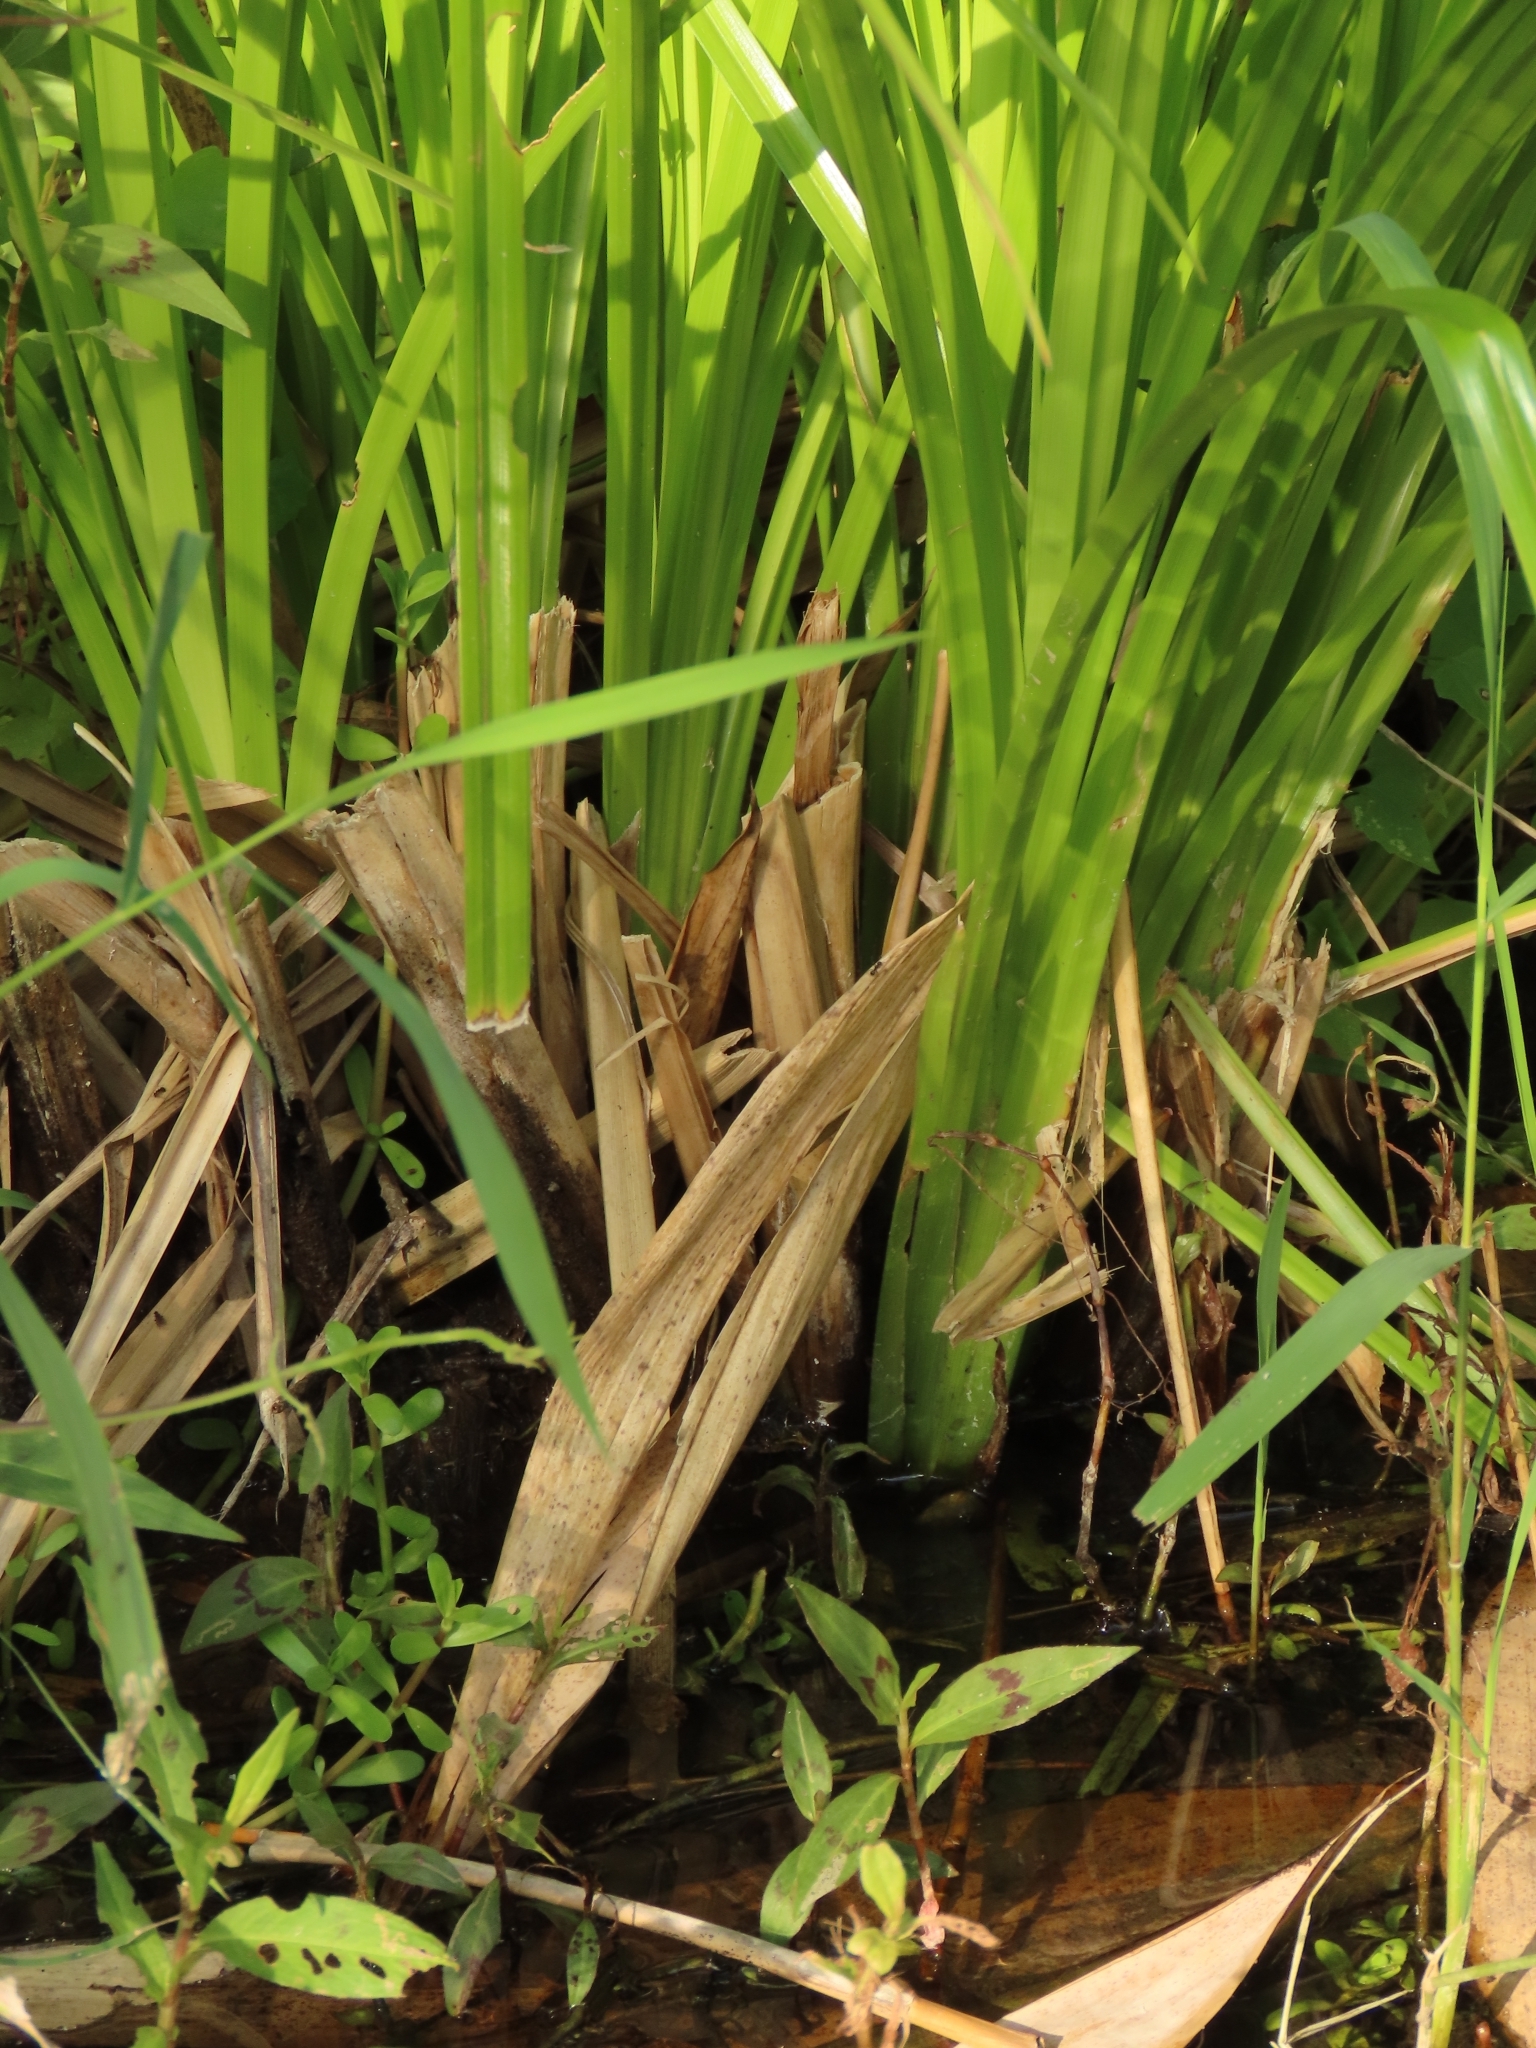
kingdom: Plantae
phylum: Tracheophyta
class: Liliopsida
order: Poales
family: Cyperaceae
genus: Scirpus
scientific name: Scirpus ternatanus
